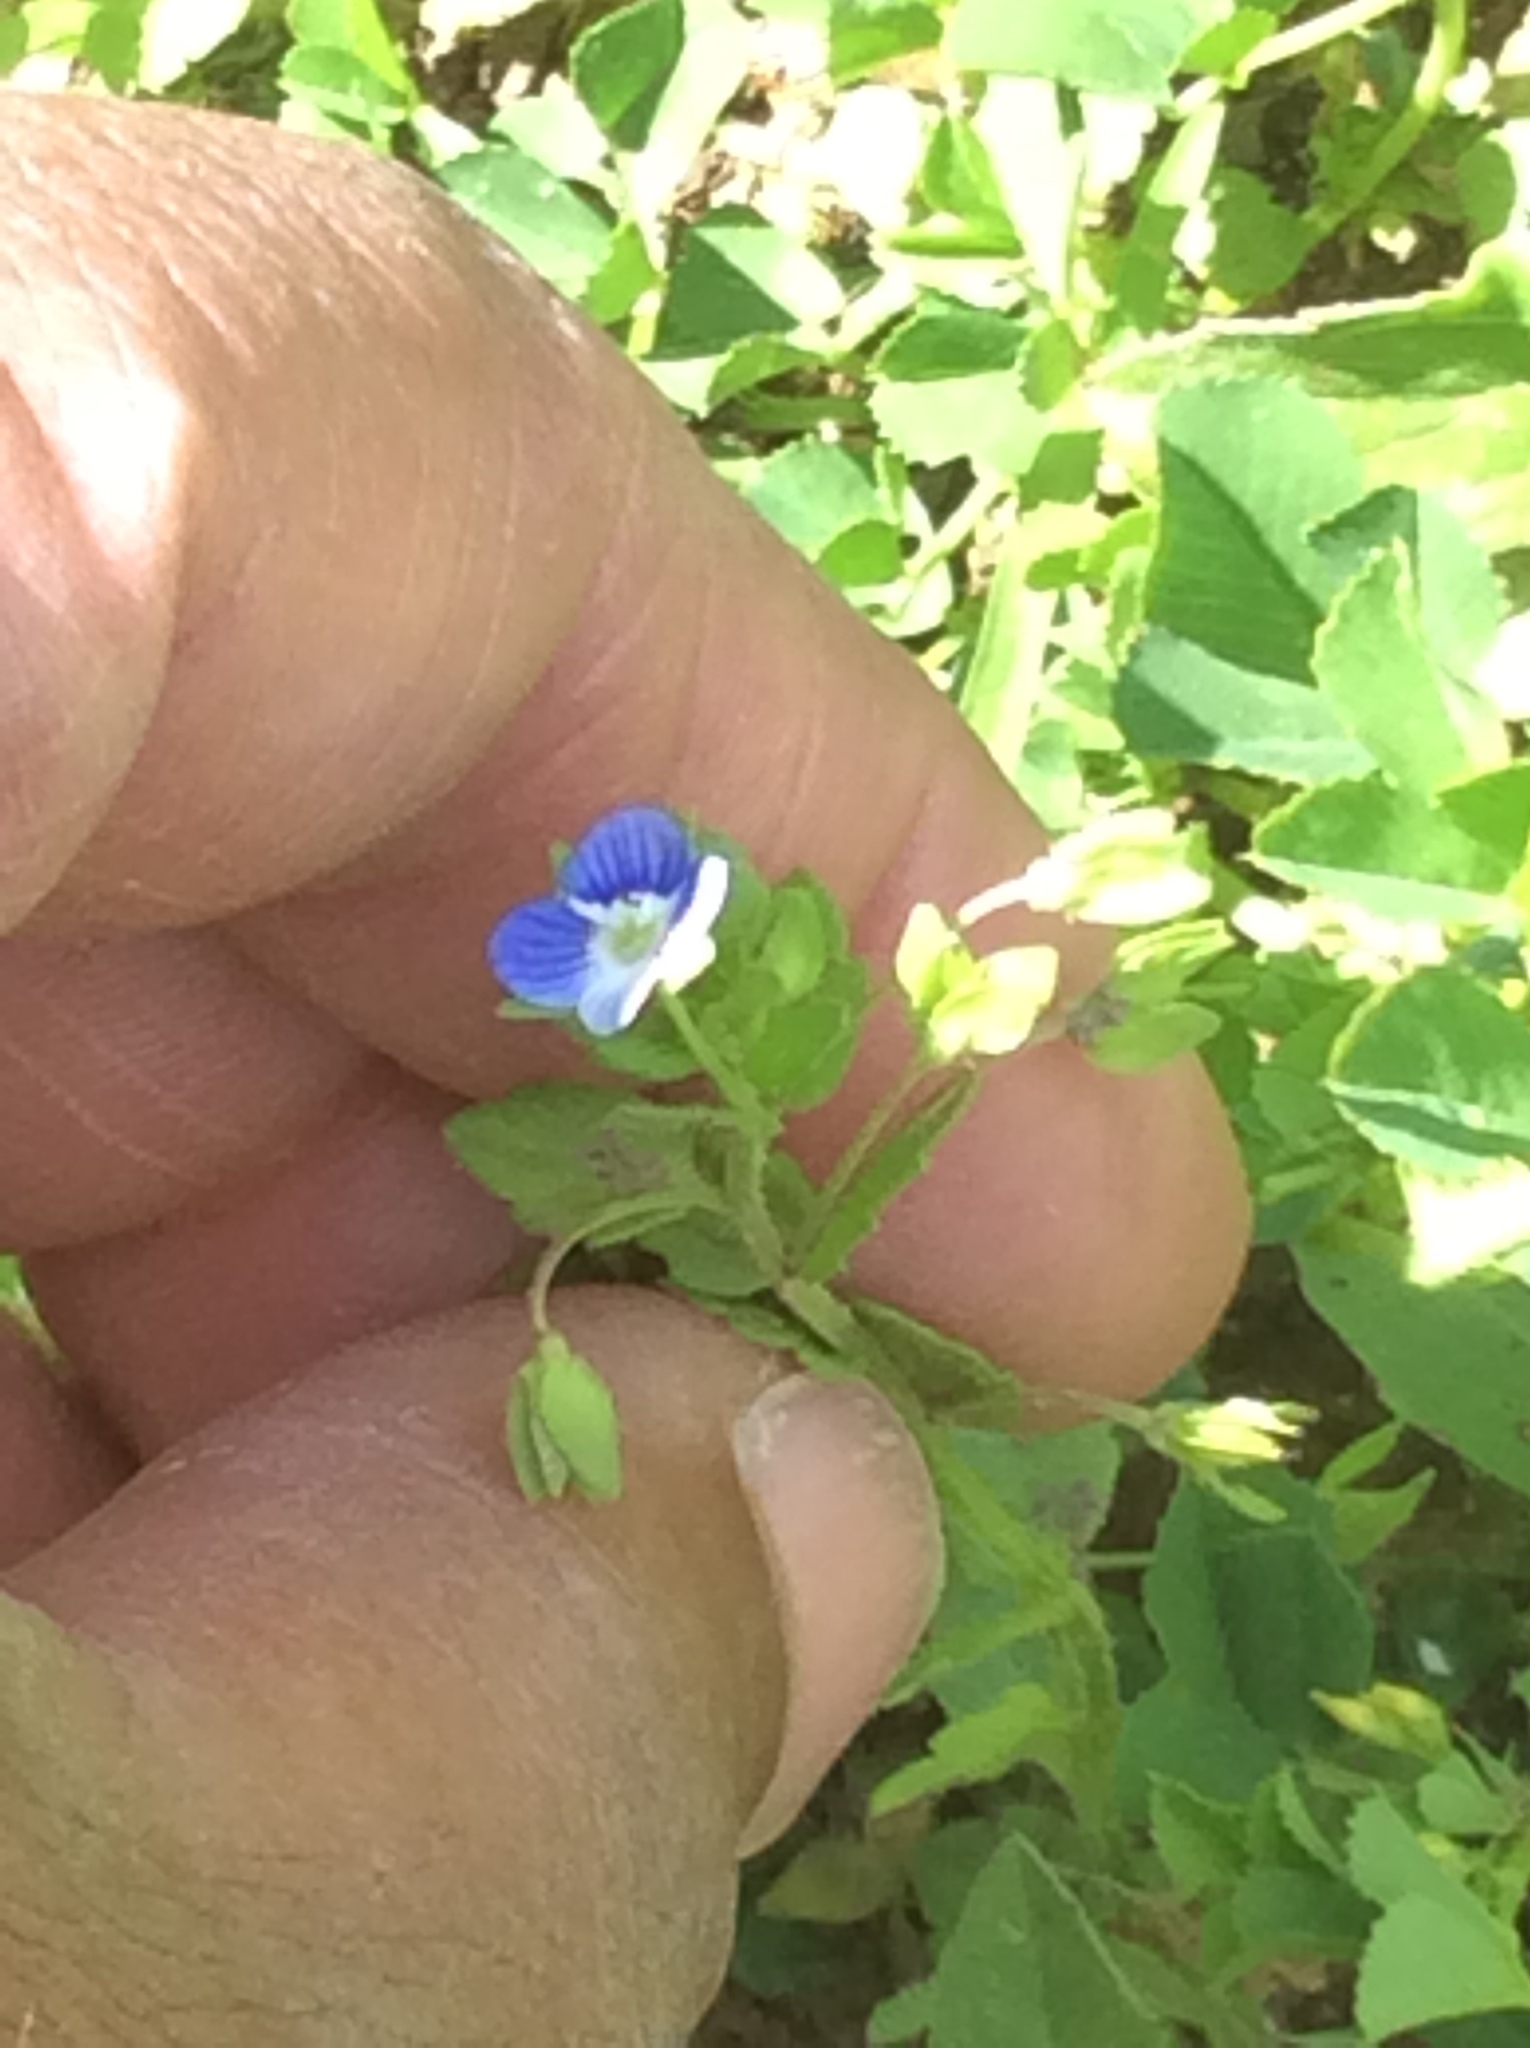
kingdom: Plantae
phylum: Tracheophyta
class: Magnoliopsida
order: Lamiales
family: Plantaginaceae
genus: Veronica
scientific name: Veronica persica
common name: Common field-speedwell
